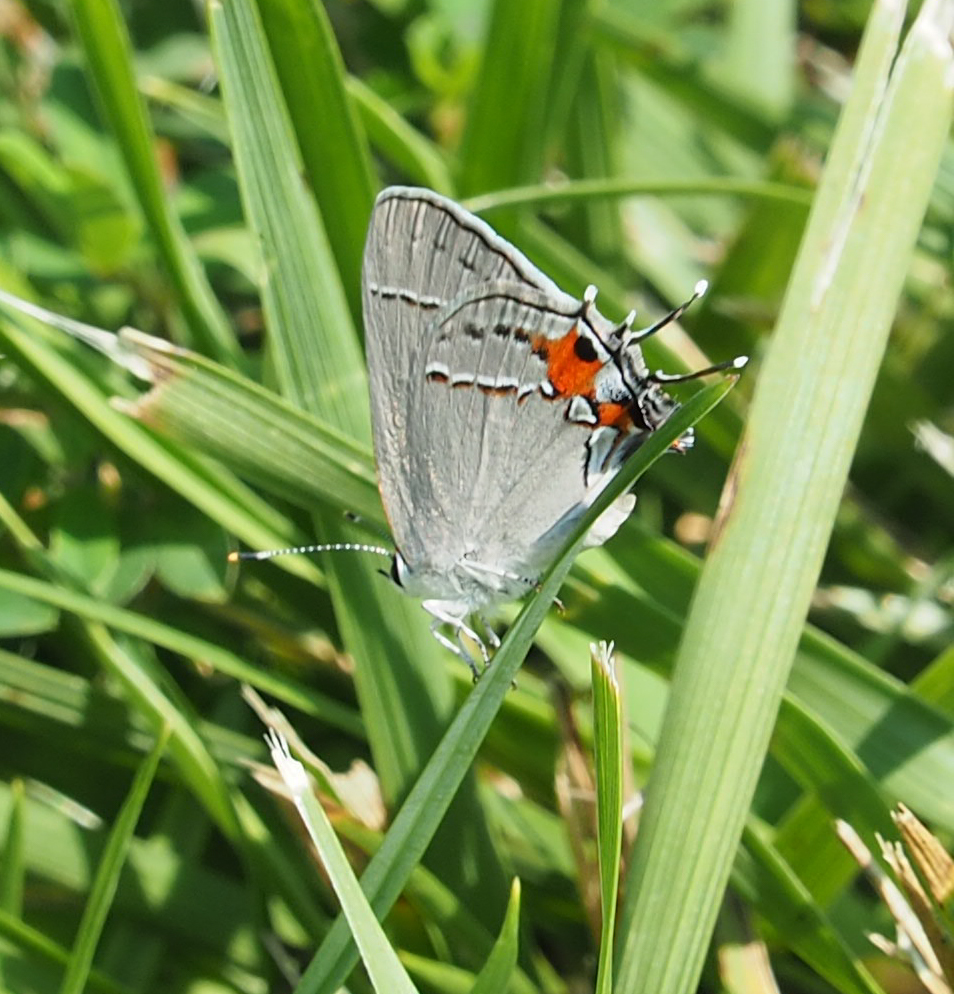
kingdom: Animalia
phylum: Arthropoda
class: Insecta
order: Lepidoptera
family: Lycaenidae
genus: Strymon
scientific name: Strymon melinus
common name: Gray hairstreak
